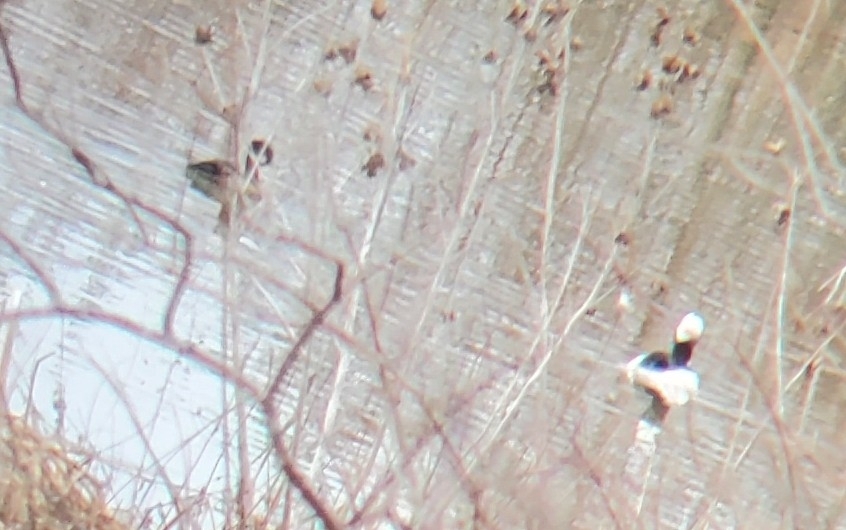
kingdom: Animalia
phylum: Chordata
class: Aves
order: Anseriformes
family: Anatidae
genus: Bucephala
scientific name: Bucephala albeola
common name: Bufflehead
